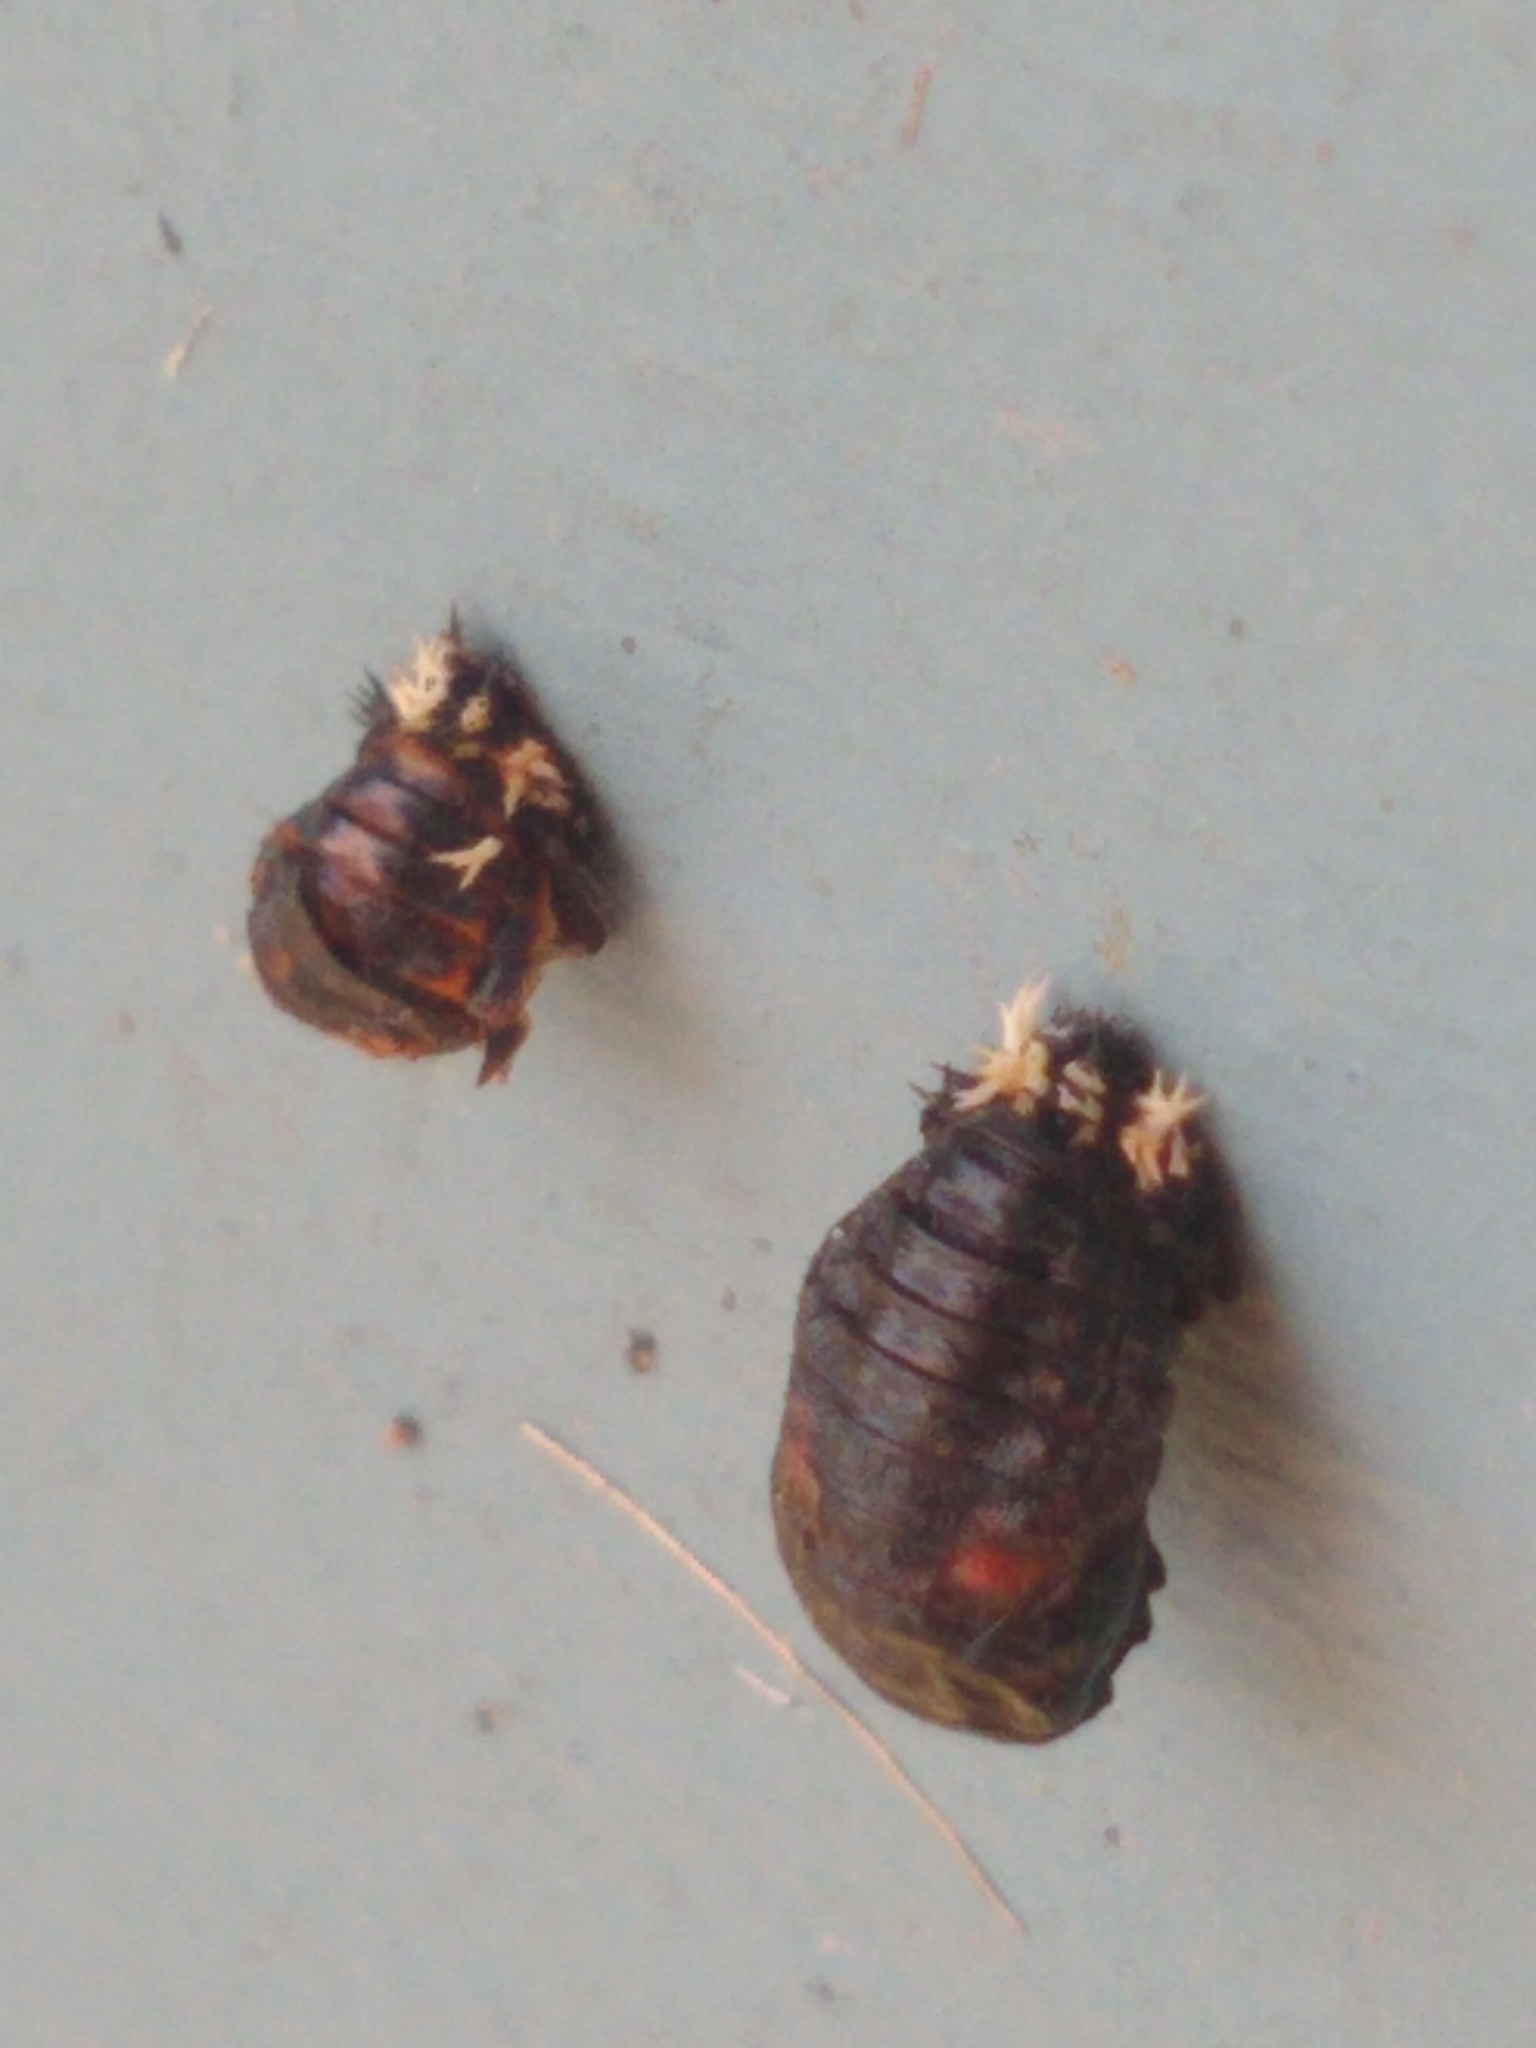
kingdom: Animalia
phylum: Arthropoda
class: Insecta
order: Coleoptera
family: Coccinellidae
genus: Harmonia
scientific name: Harmonia axyridis
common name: Harlequin ladybird
